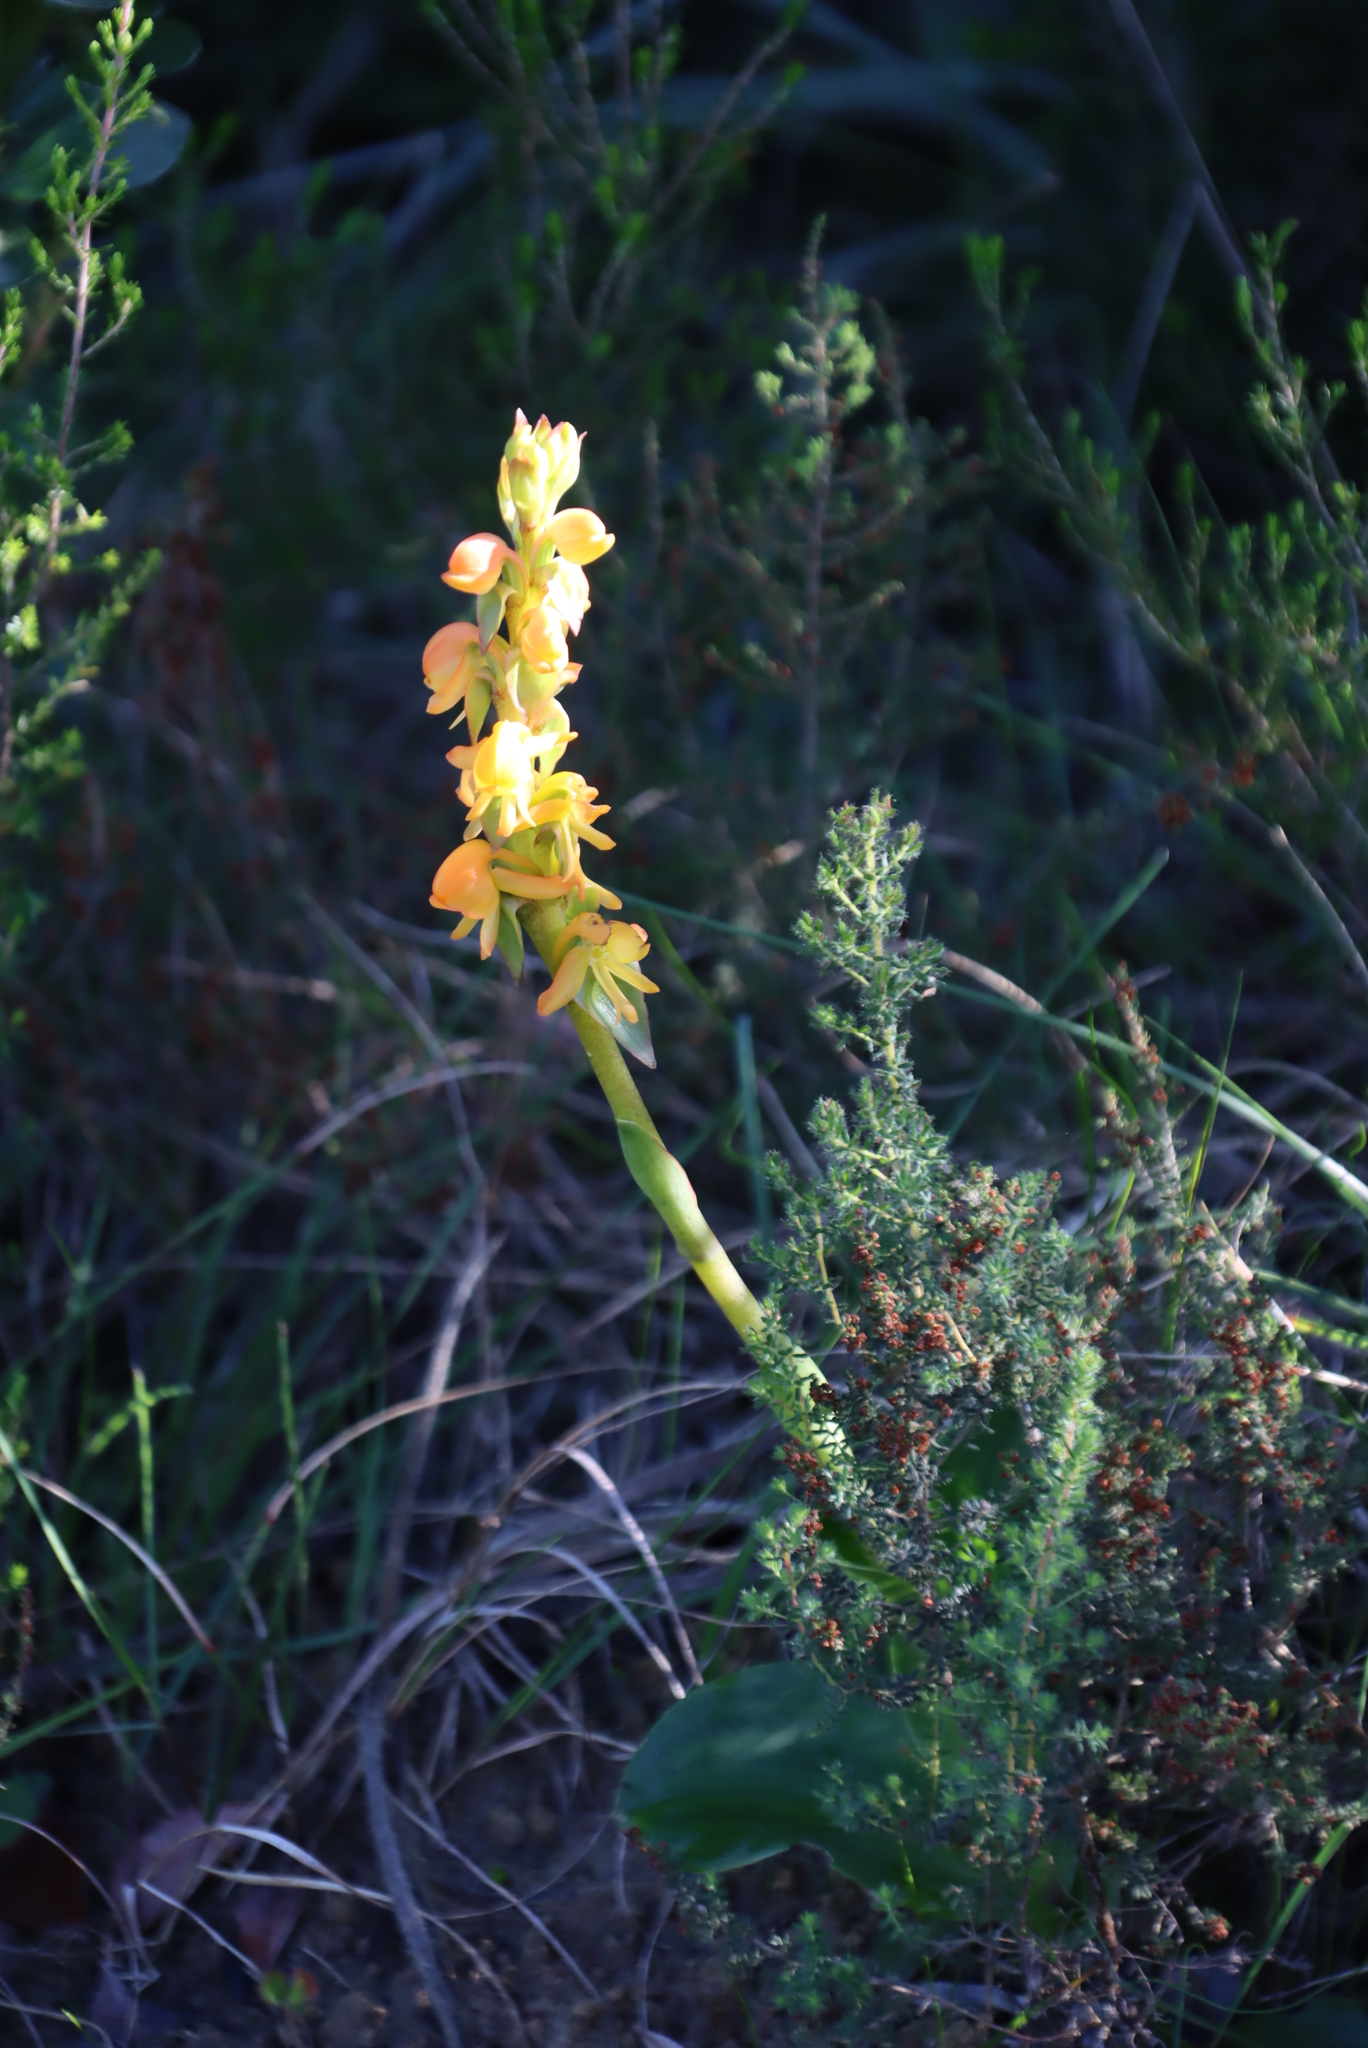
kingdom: Plantae
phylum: Tracheophyta
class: Liliopsida
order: Asparagales
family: Orchidaceae
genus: Satyrium
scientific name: Satyrium coriifolium
